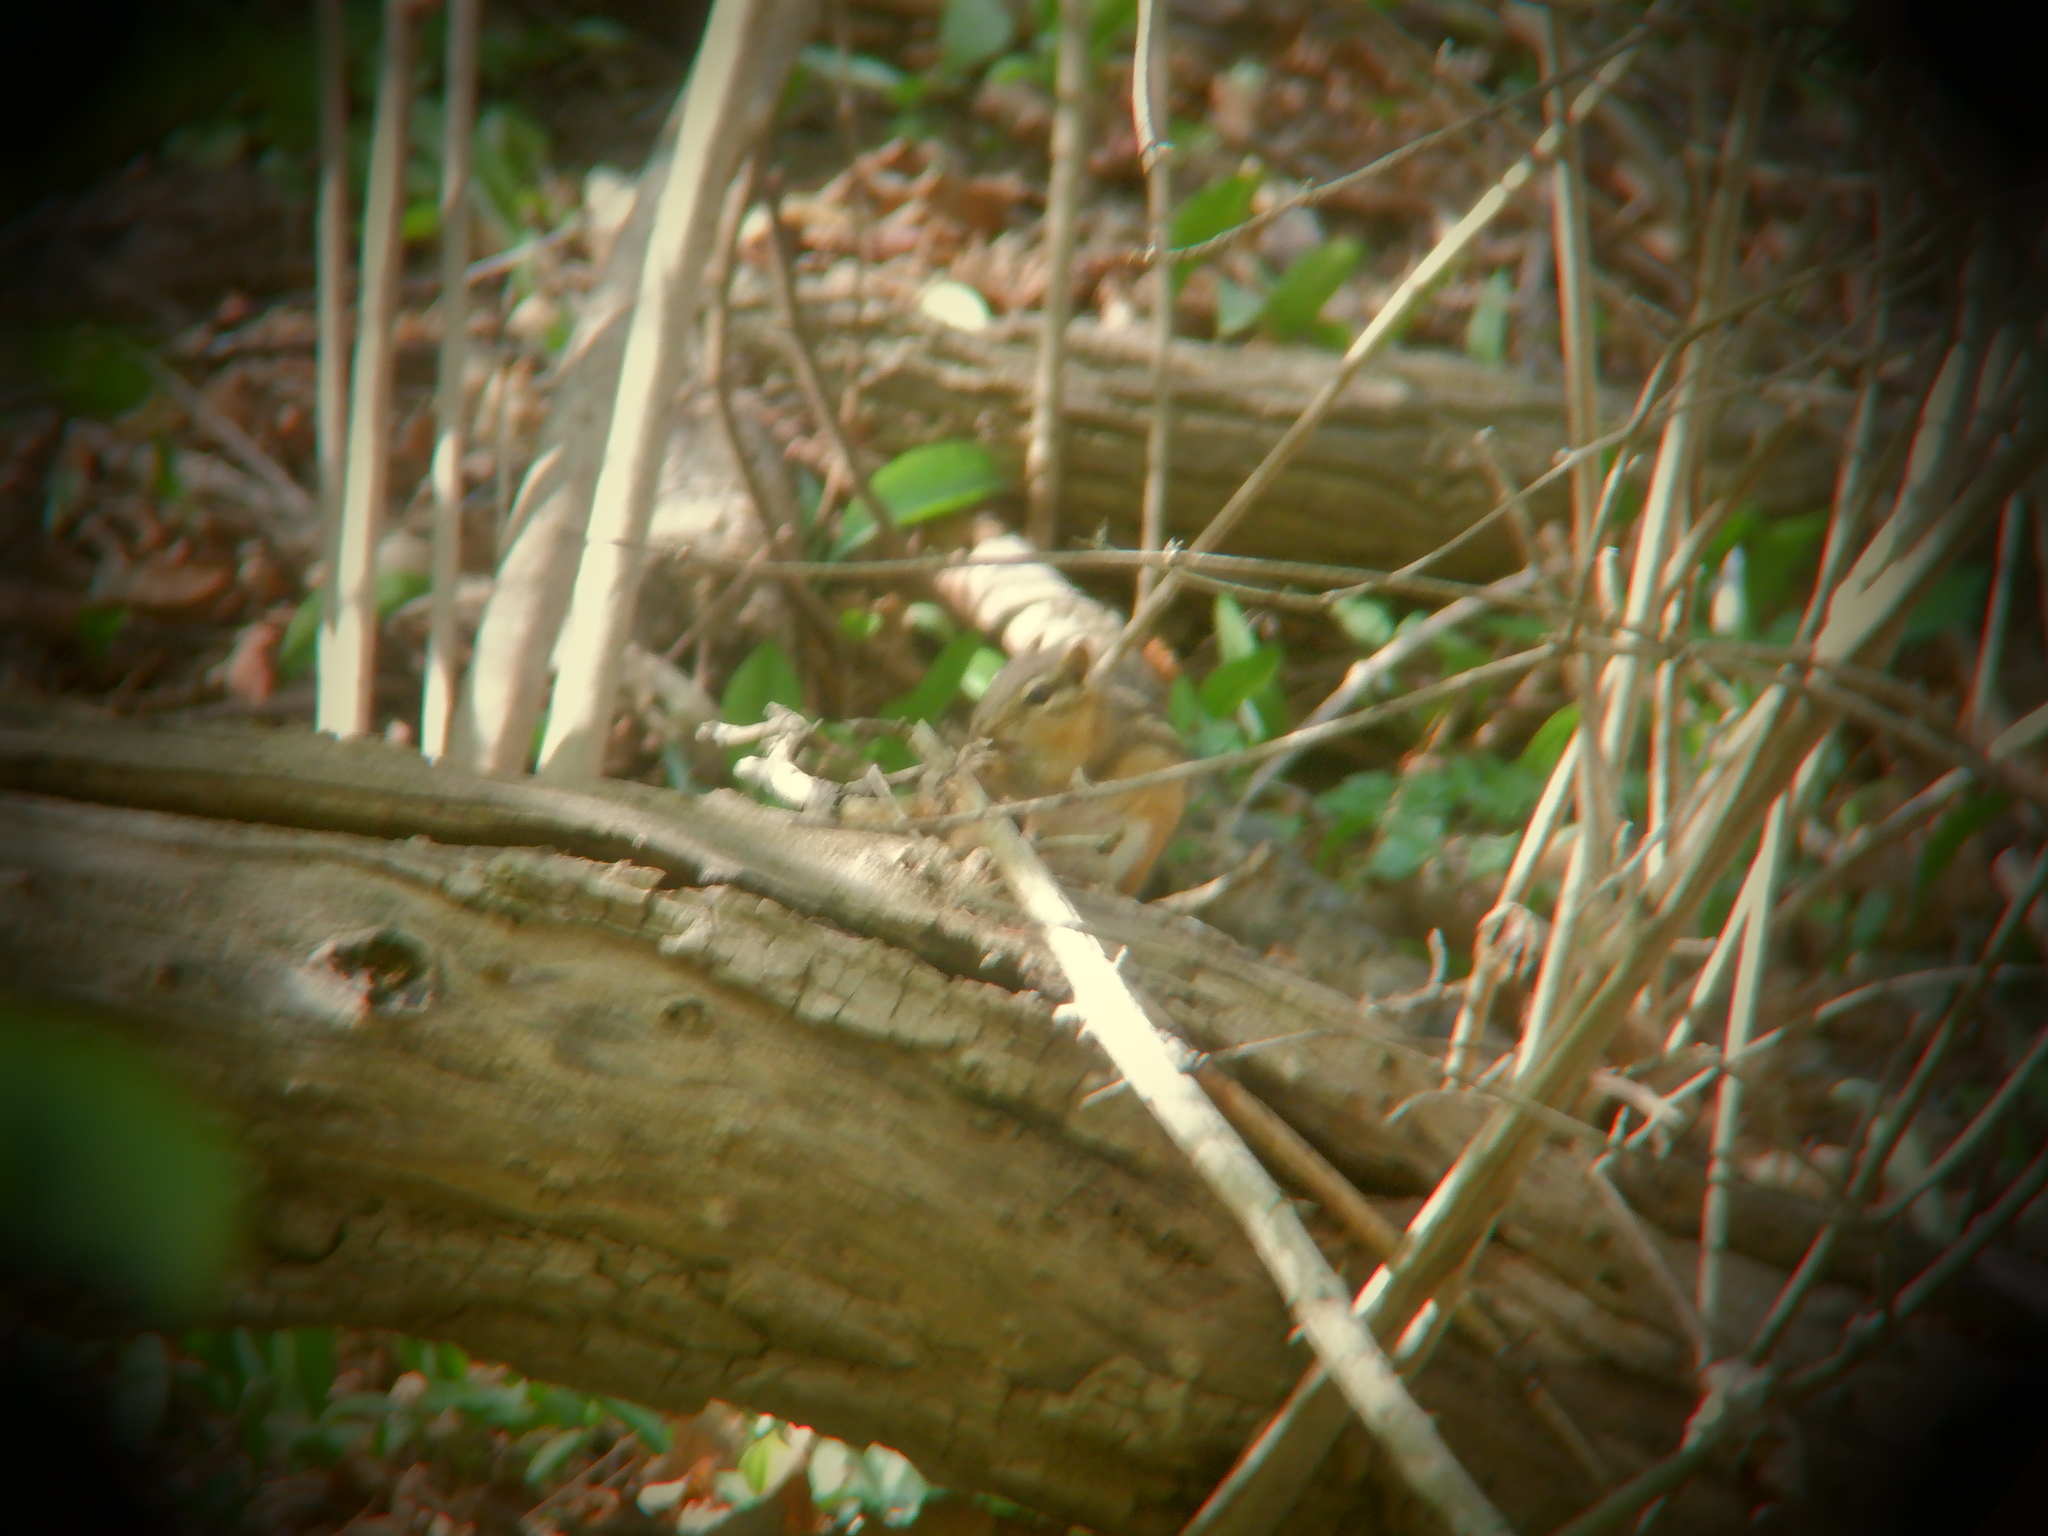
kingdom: Animalia
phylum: Chordata
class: Mammalia
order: Rodentia
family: Sciuridae
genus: Tamias
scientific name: Tamias striatus
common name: Eastern chipmunk
